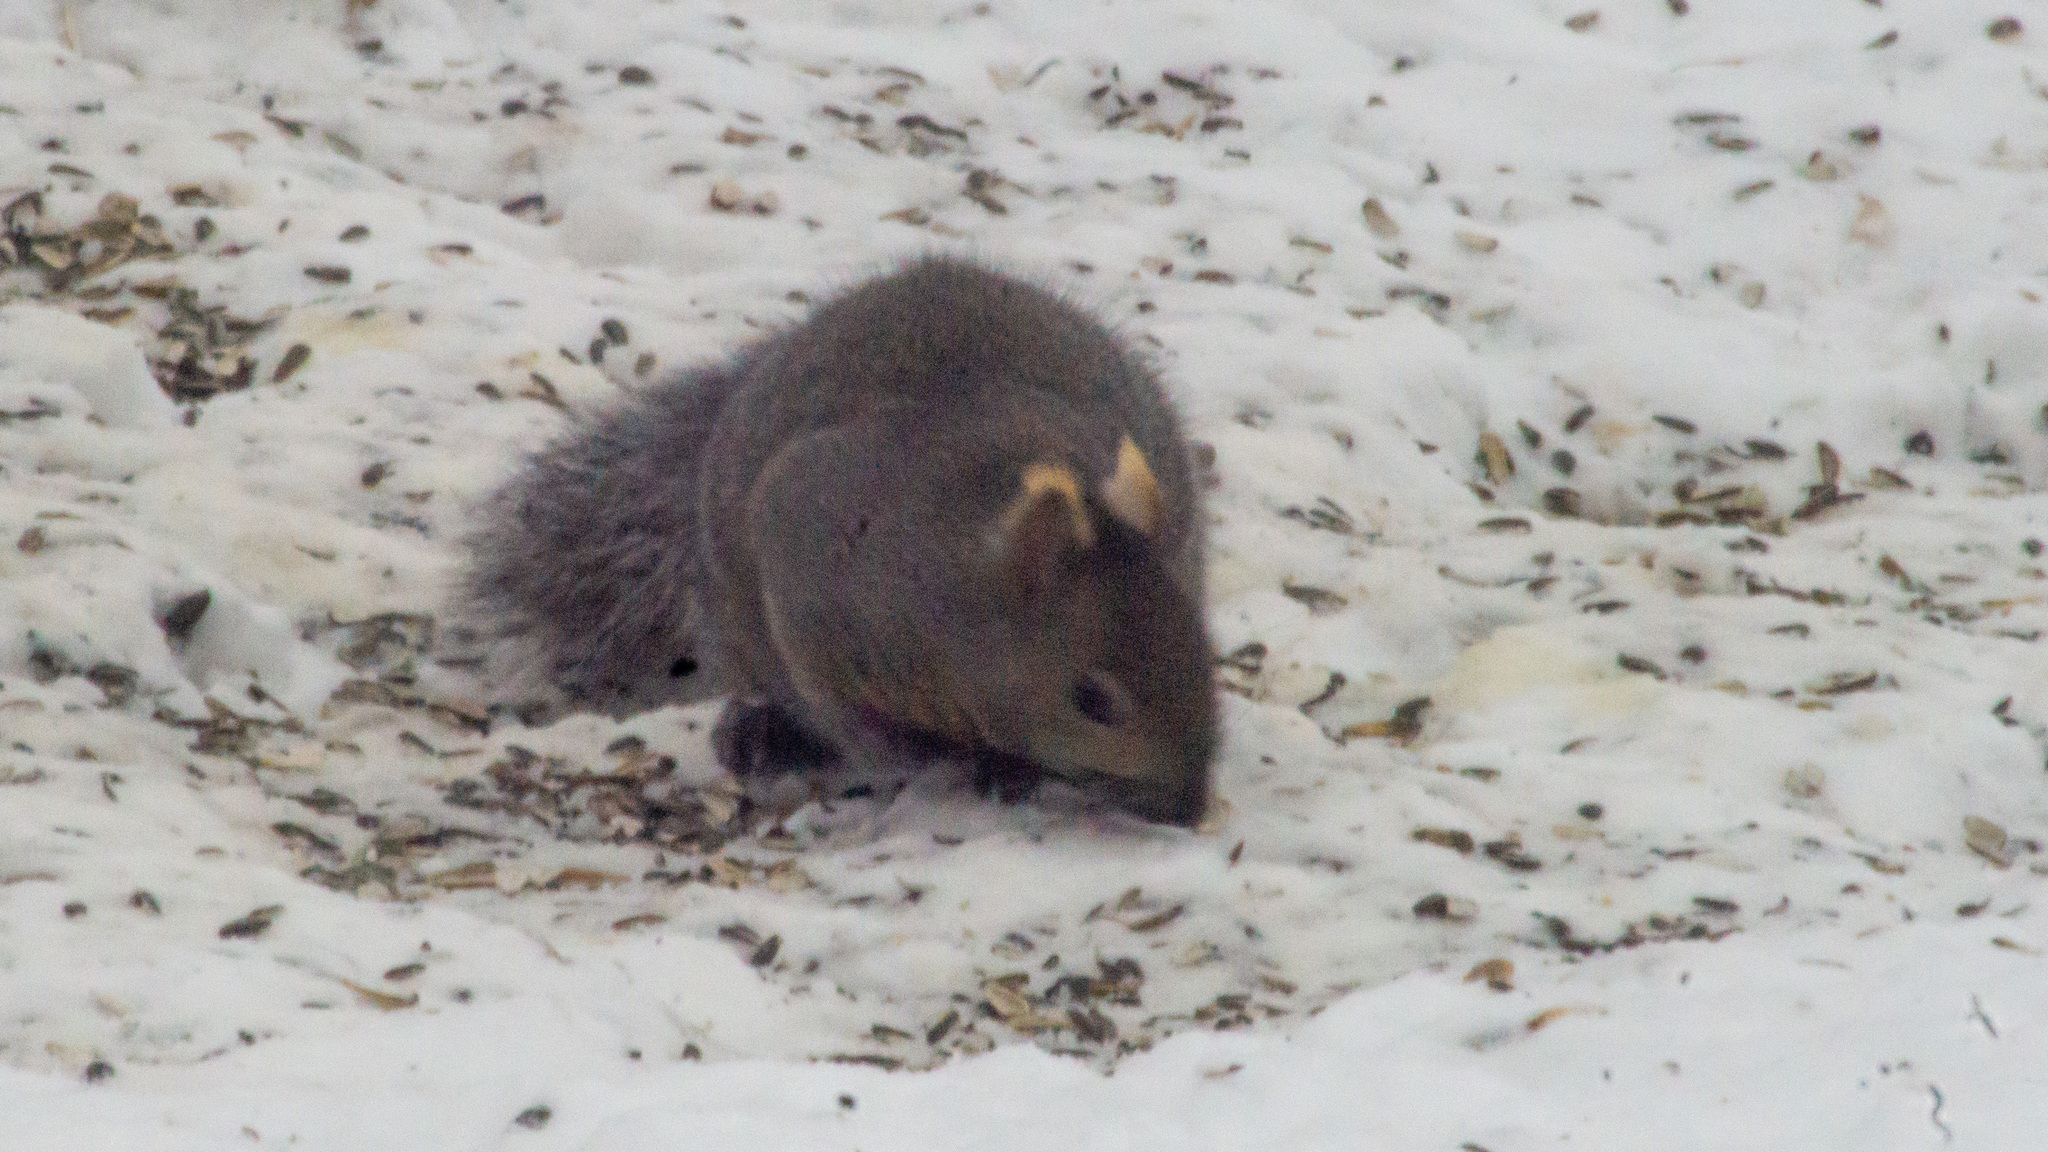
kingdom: Animalia
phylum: Chordata
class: Mammalia
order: Rodentia
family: Sciuridae
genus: Sciurus
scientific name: Sciurus carolinensis
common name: Eastern gray squirrel
